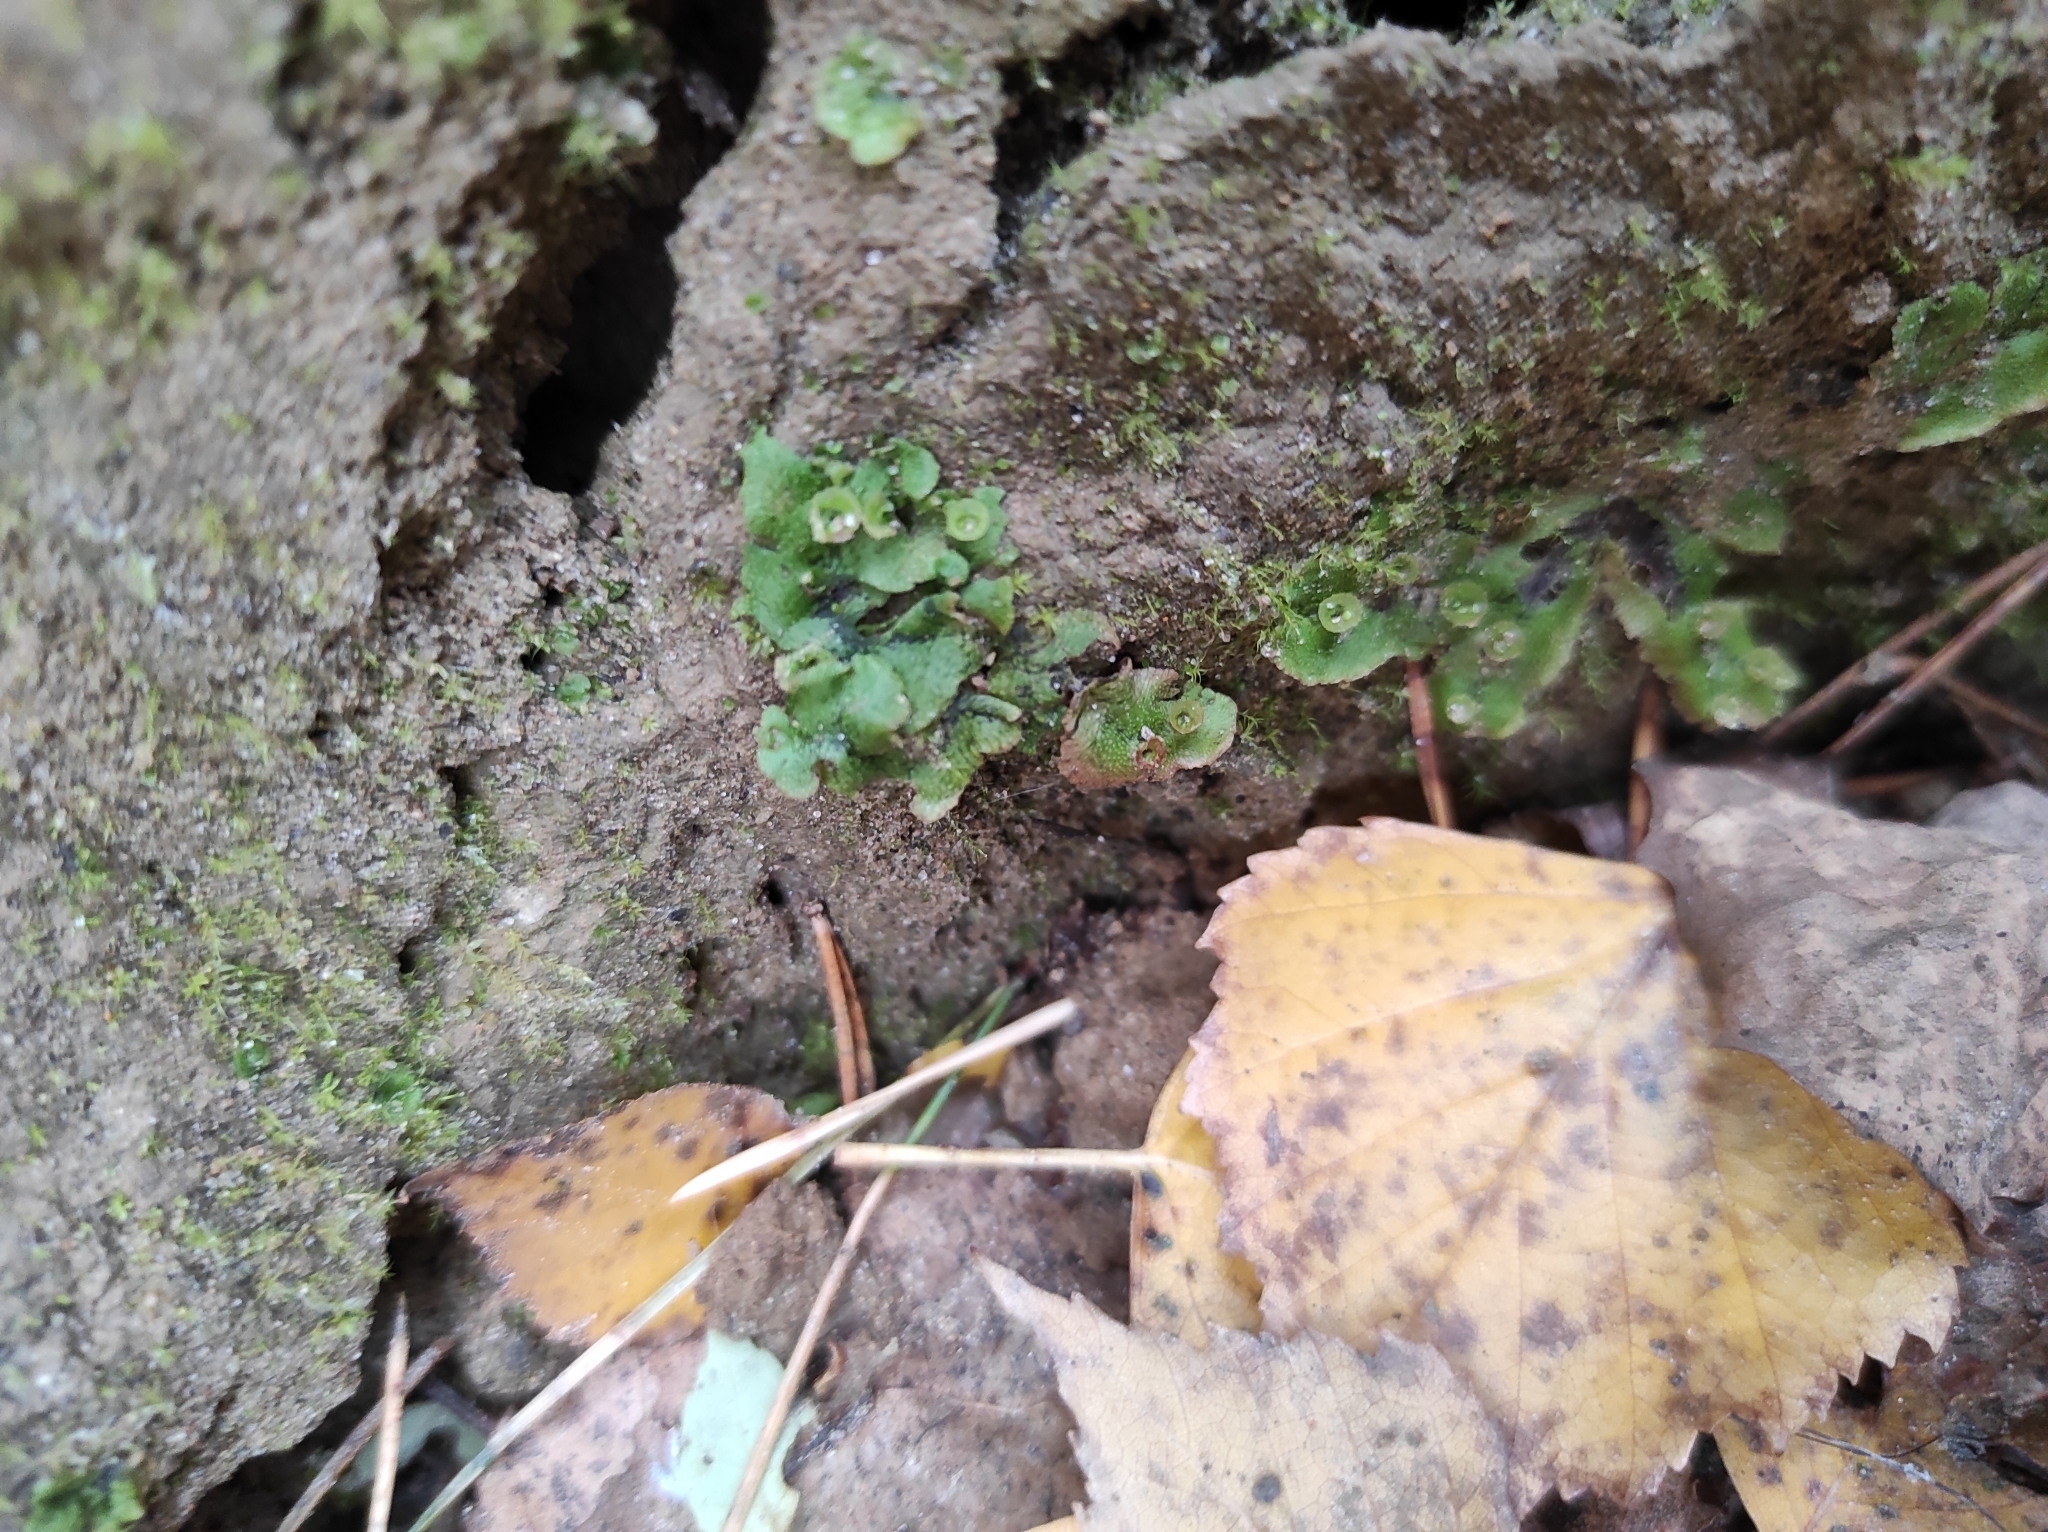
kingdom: Plantae
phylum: Marchantiophyta
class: Marchantiopsida
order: Marchantiales
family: Marchantiaceae
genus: Marchantia
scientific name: Marchantia polymorpha
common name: Common liverwort
